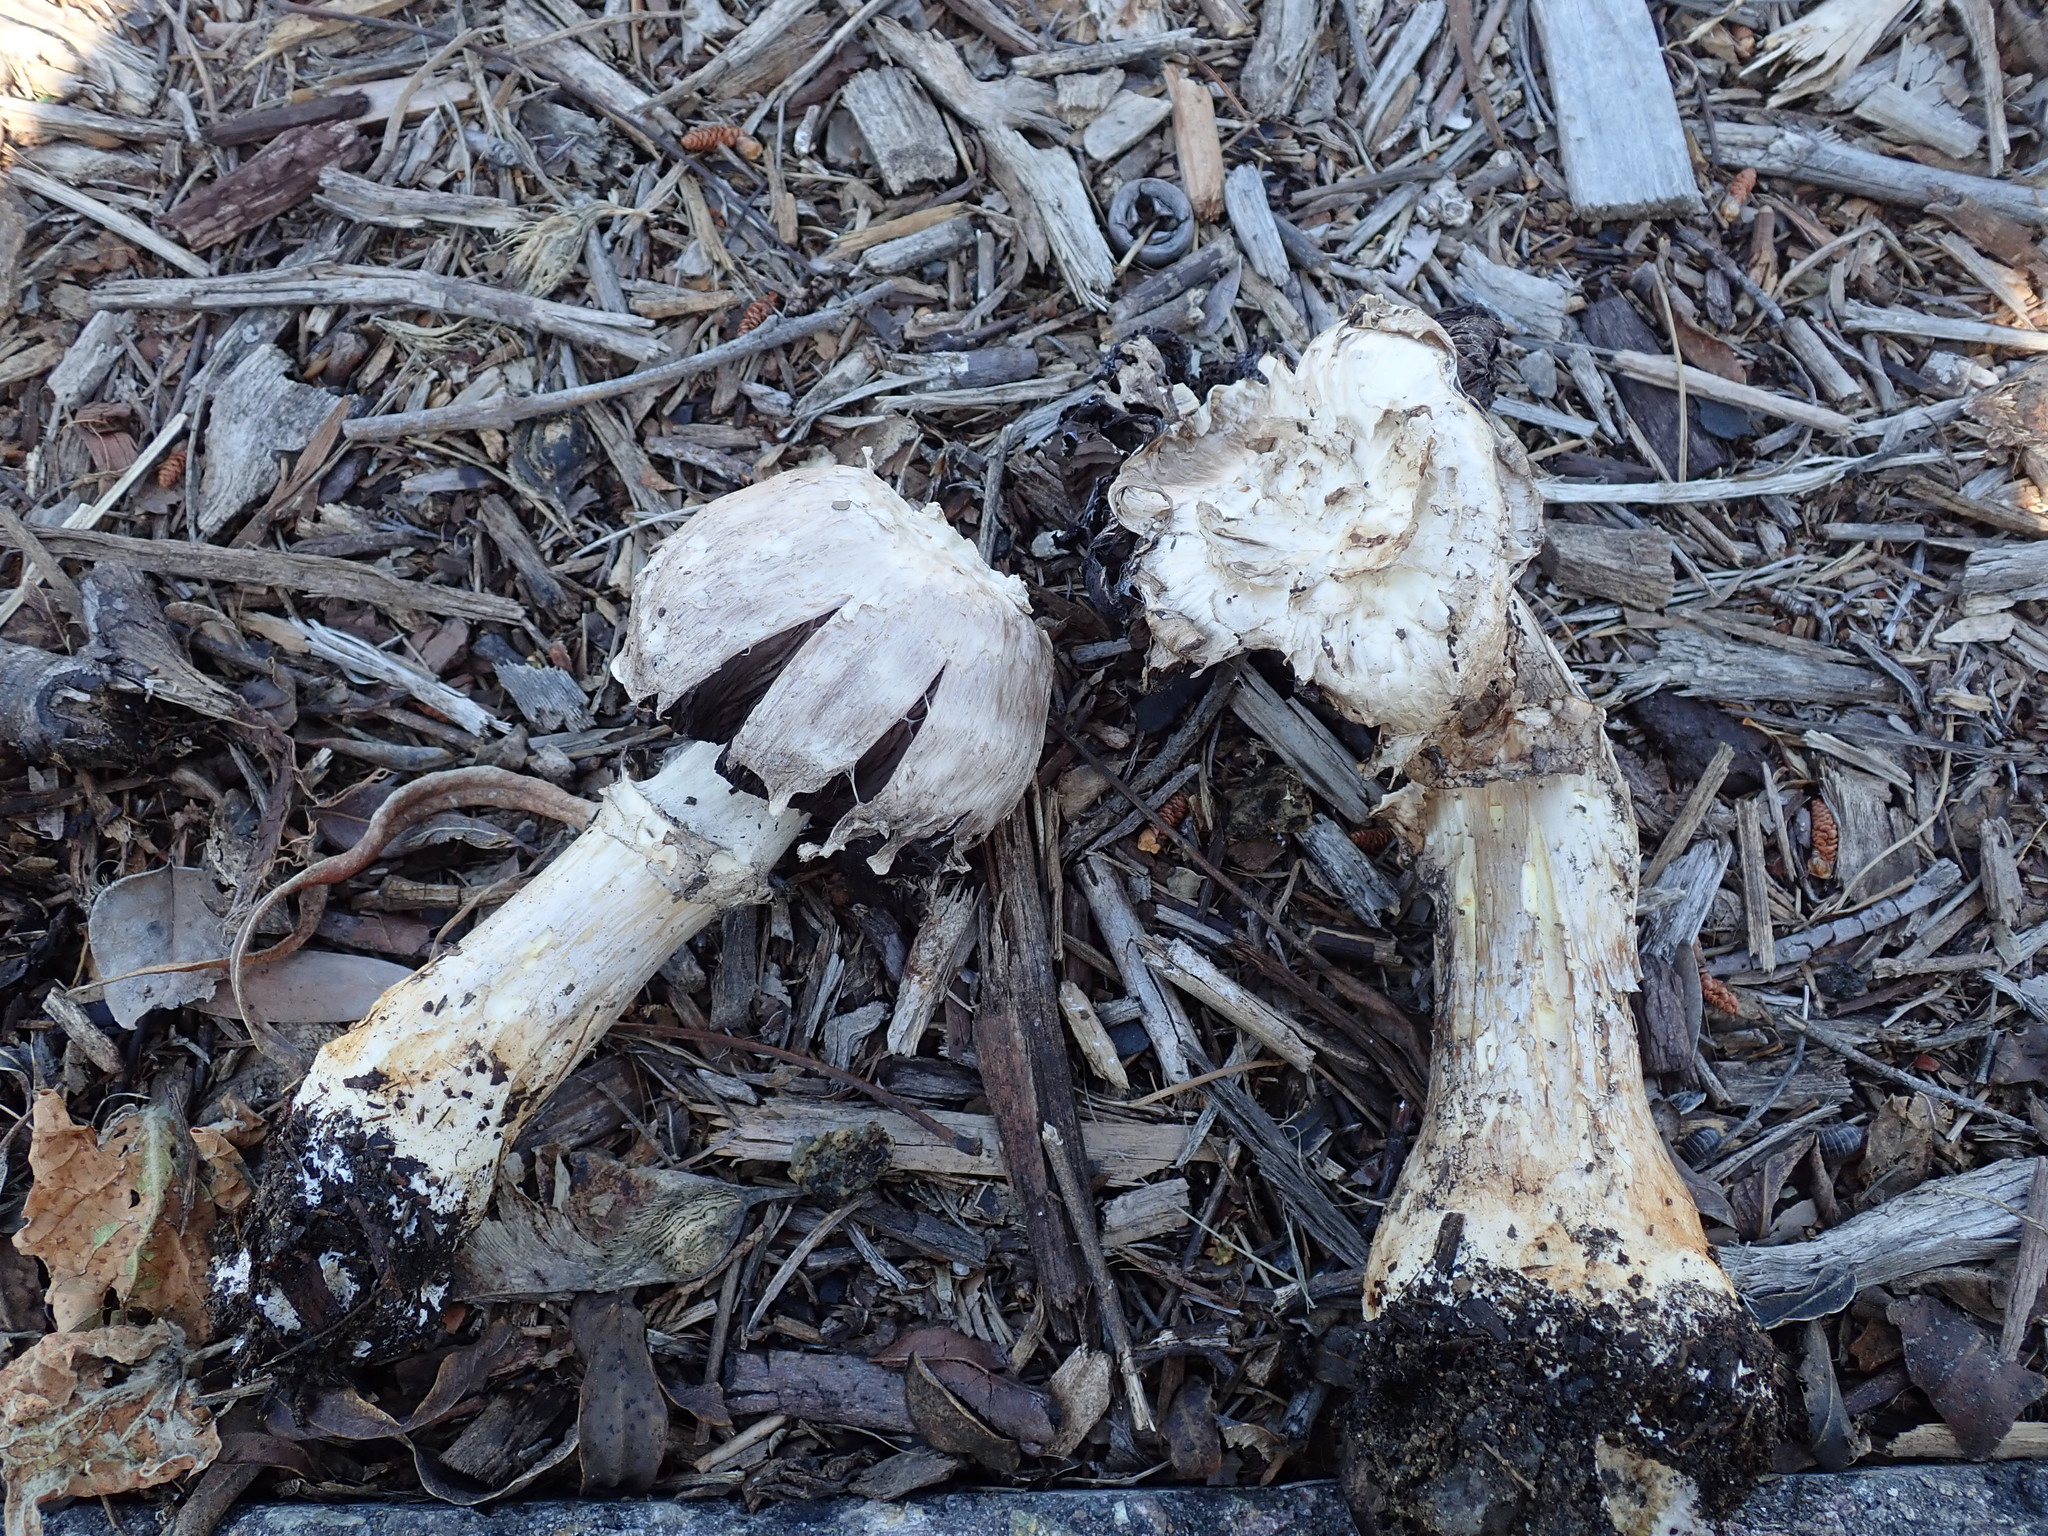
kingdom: Fungi
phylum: Basidiomycota
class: Agaricomycetes
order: Agaricales
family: Agaricaceae
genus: Agaricus
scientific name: Agaricus deserticola
